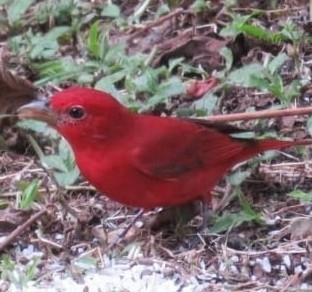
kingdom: Animalia
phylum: Chordata
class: Aves
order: Passeriformes
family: Cardinalidae
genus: Piranga
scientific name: Piranga rubra
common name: Summer tanager
